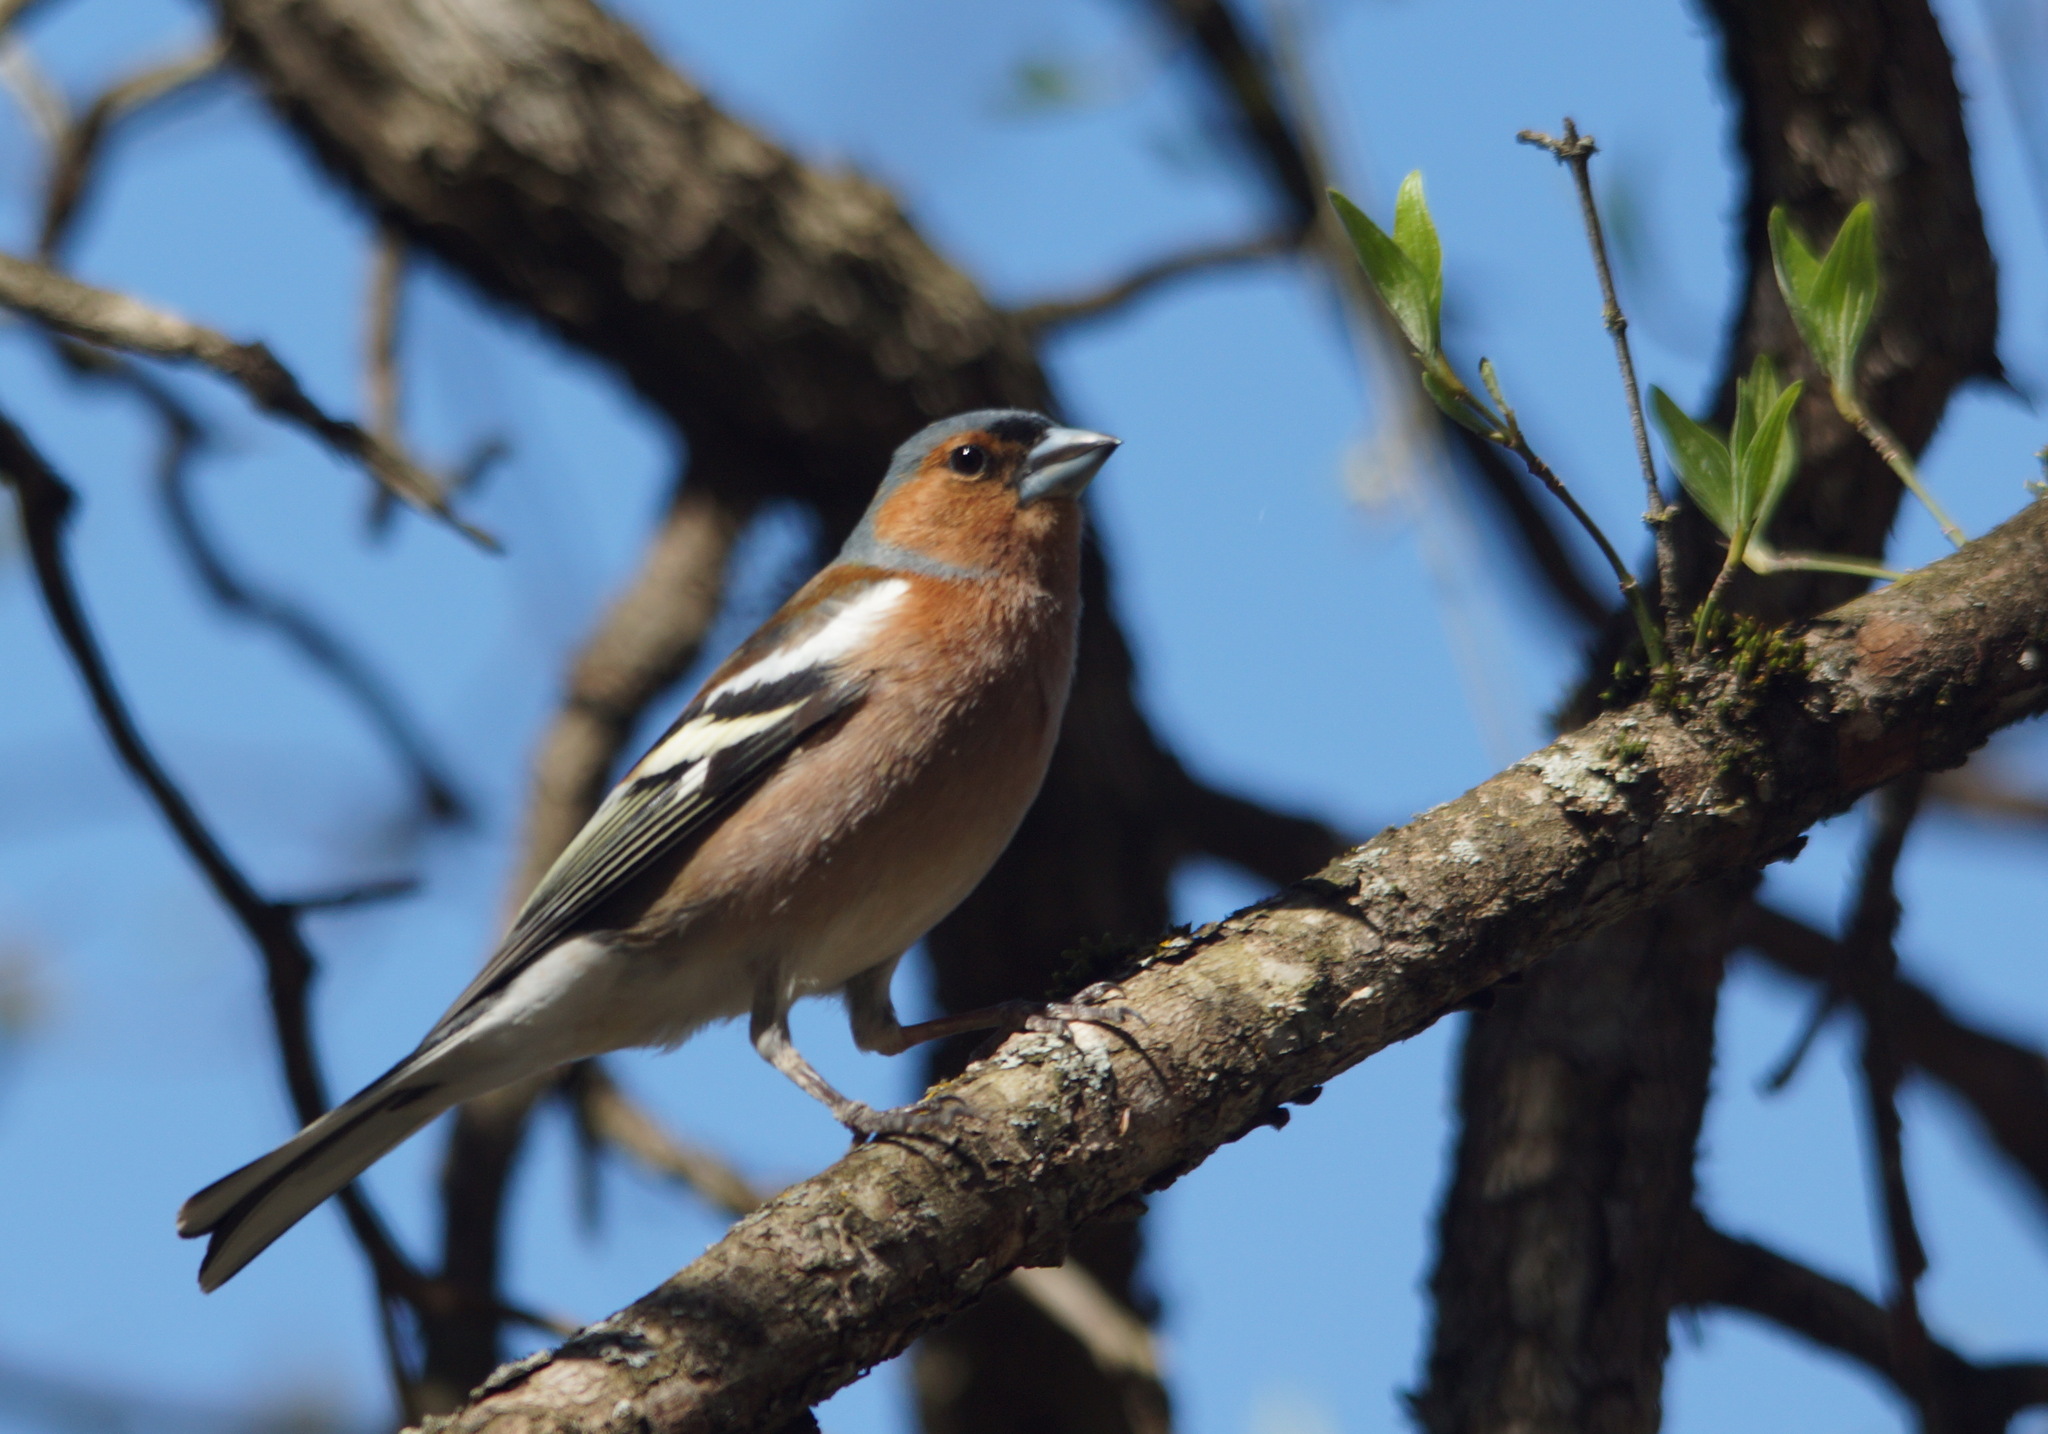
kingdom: Animalia
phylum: Chordata
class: Aves
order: Passeriformes
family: Fringillidae
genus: Fringilla
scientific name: Fringilla coelebs
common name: Common chaffinch
